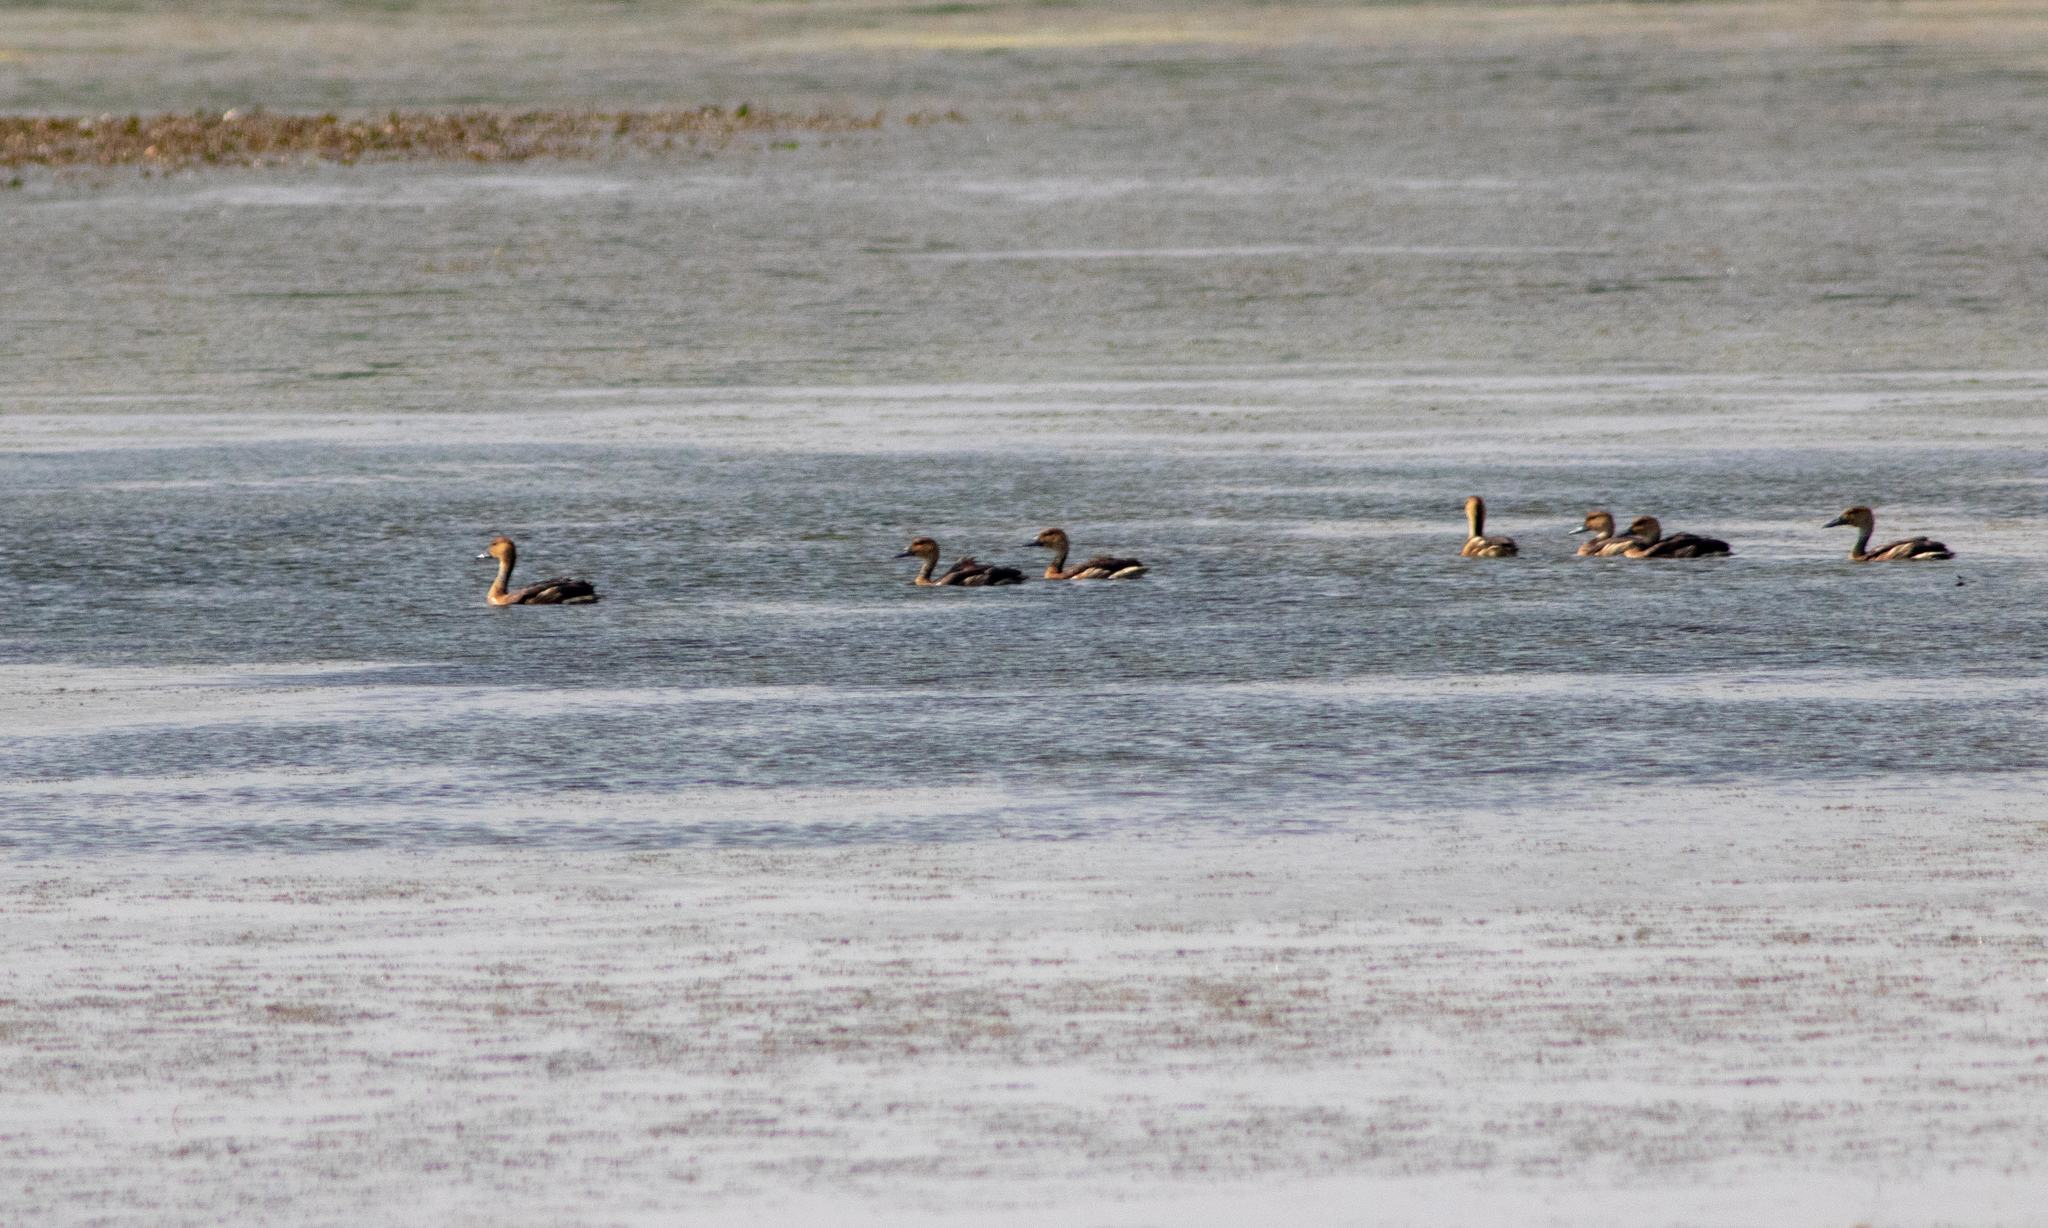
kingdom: Animalia
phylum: Chordata
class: Aves
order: Anseriformes
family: Anatidae
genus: Dendrocygna
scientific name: Dendrocygna bicolor
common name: Fulvous whistling duck
